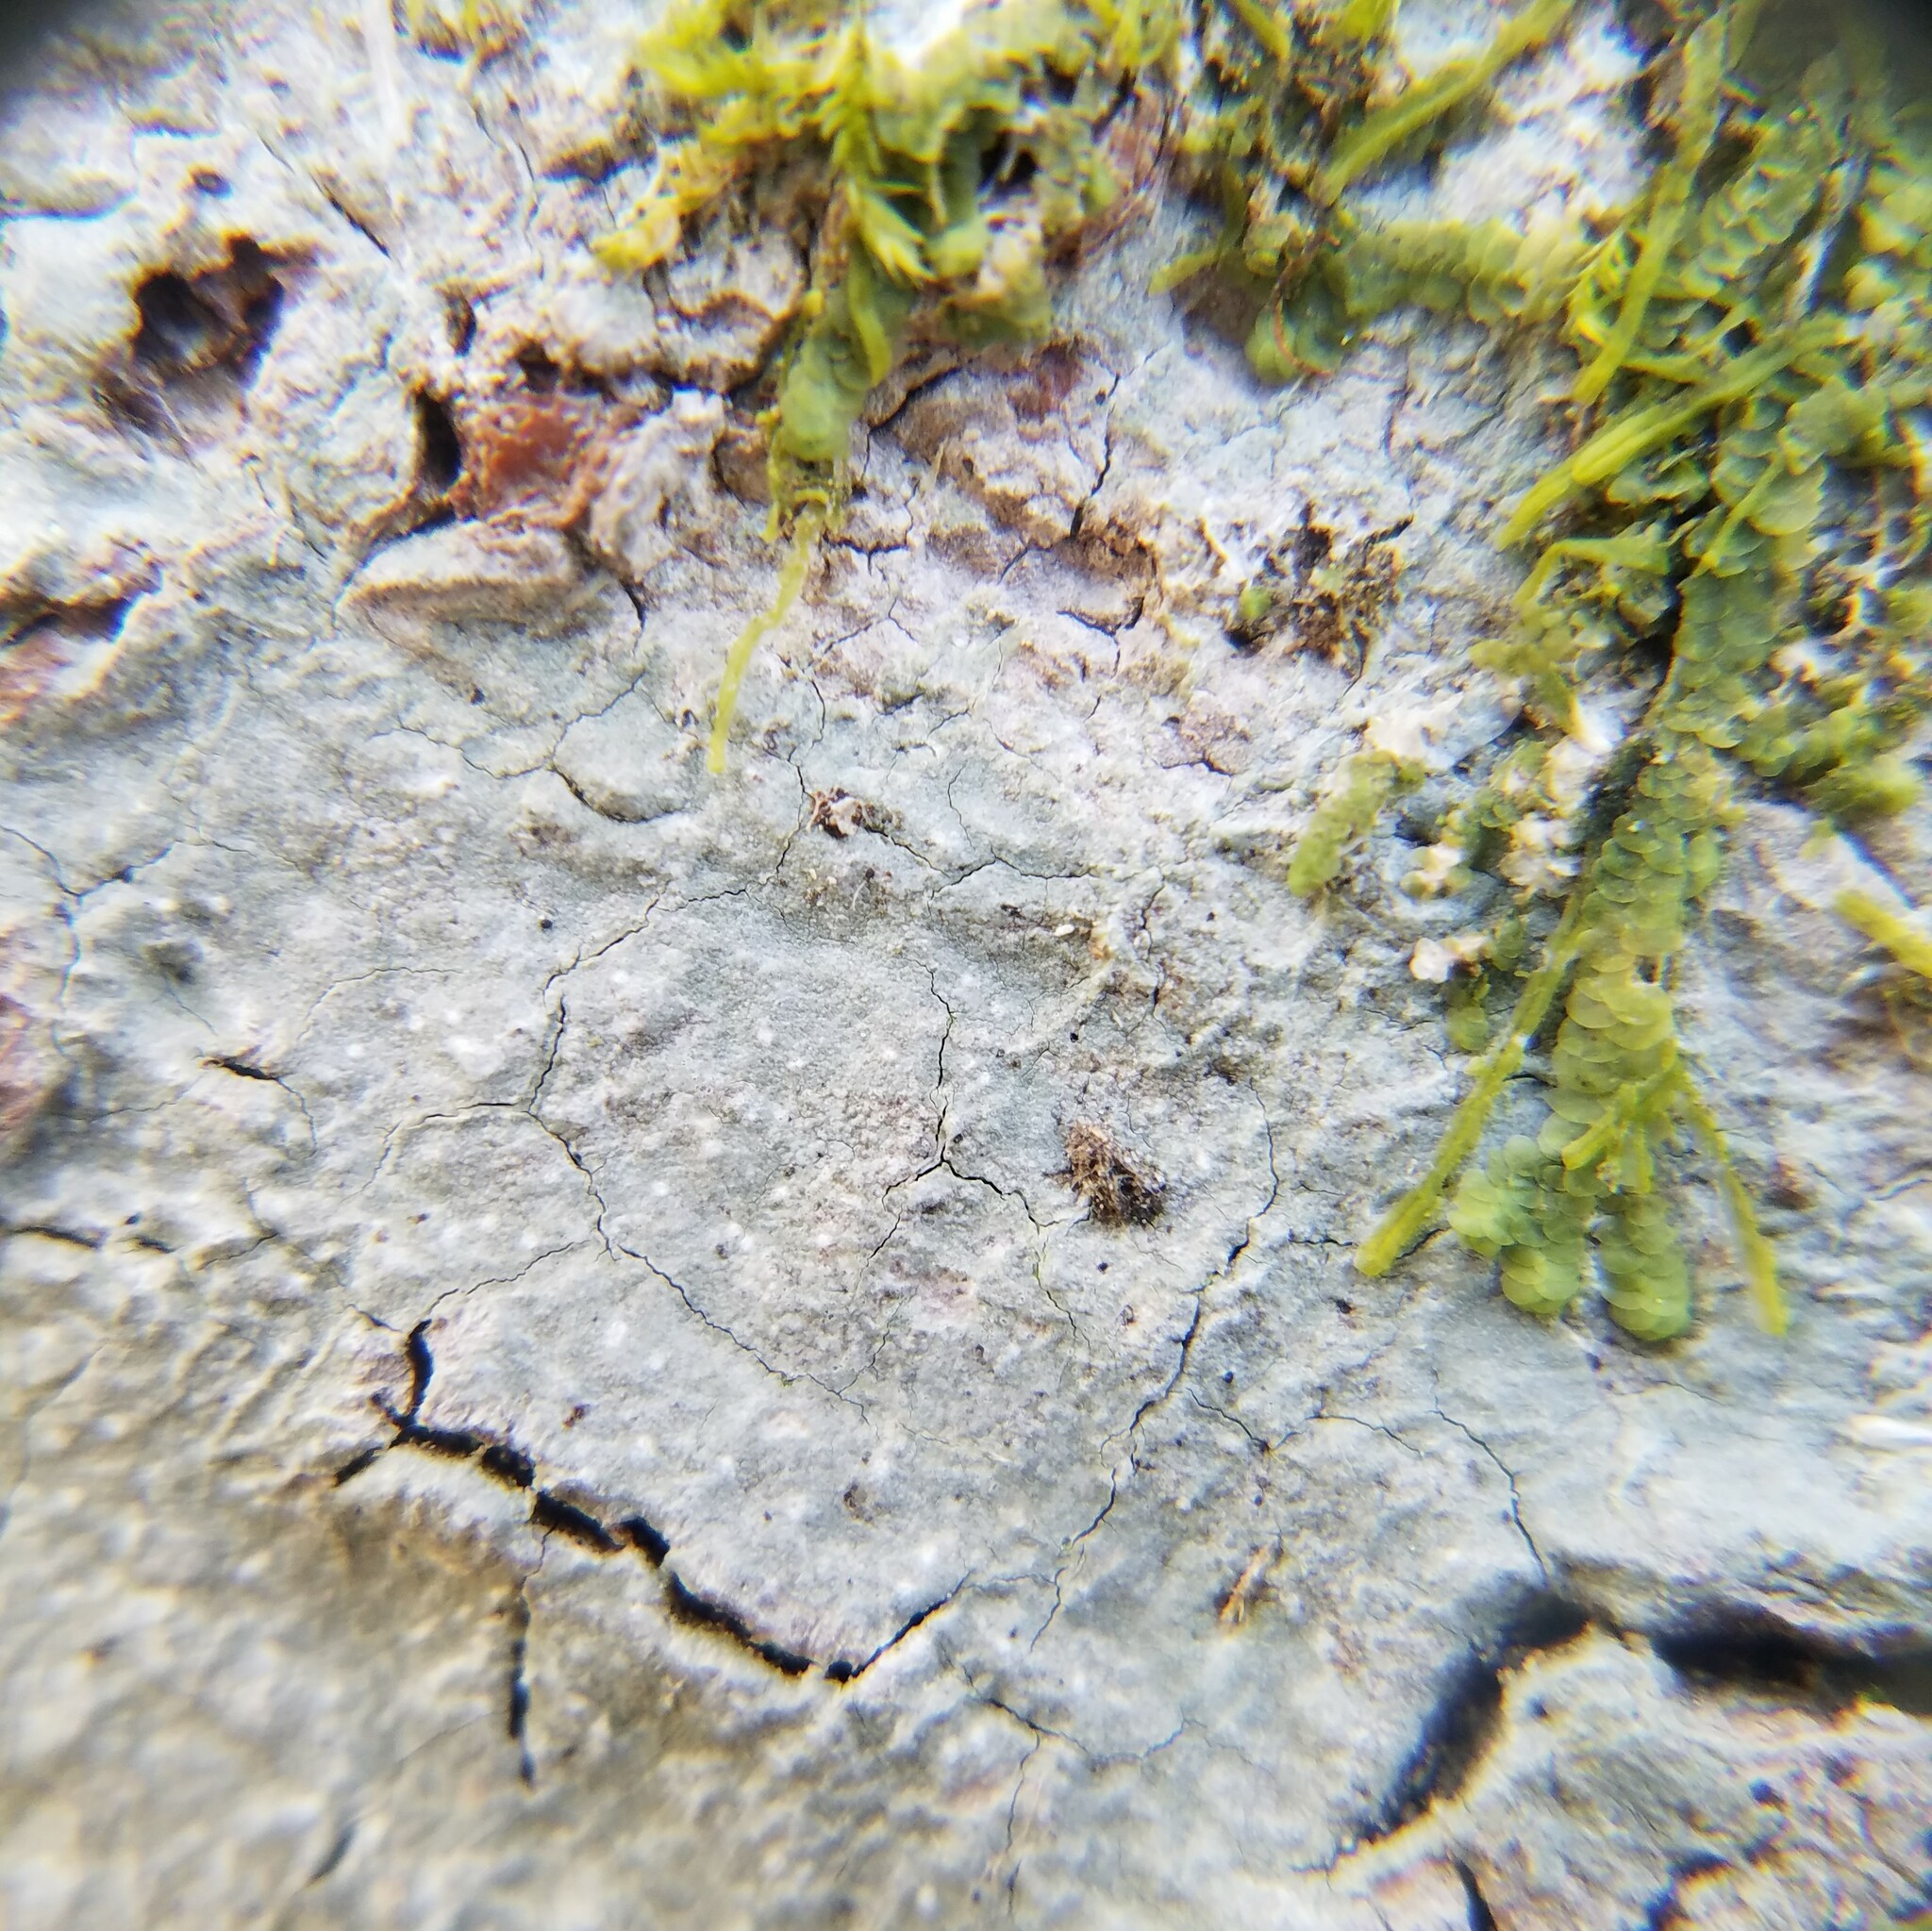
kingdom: Fungi
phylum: Ascomycota
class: Lecanoromycetes
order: Ostropales
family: Graphidaceae
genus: Leucodecton
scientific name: Leucodecton subcompunctum
